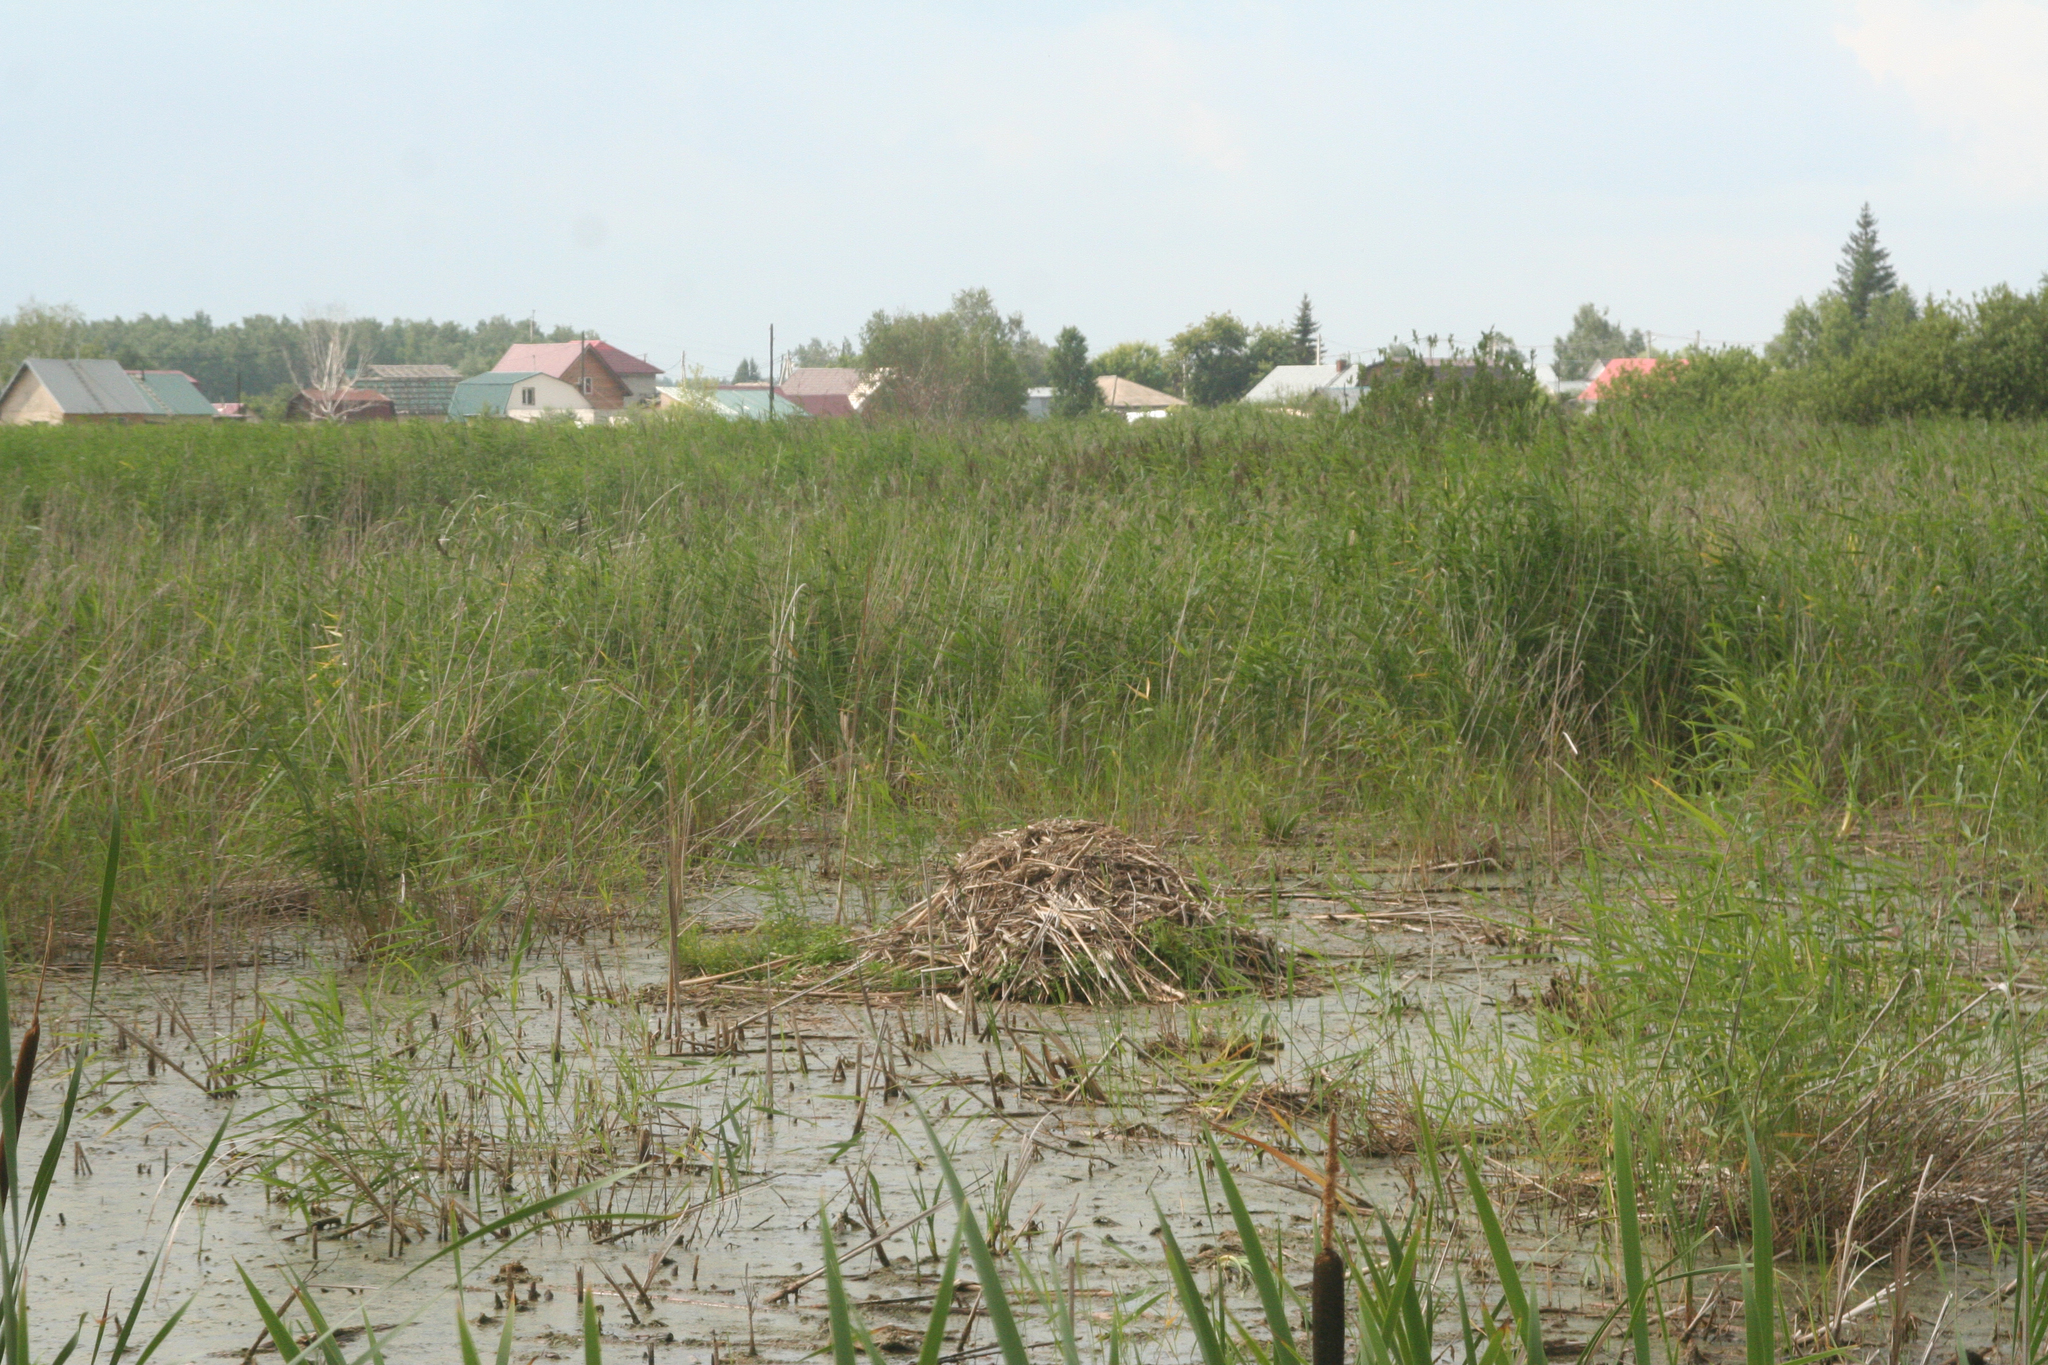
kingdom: Animalia
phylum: Chordata
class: Mammalia
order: Rodentia
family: Cricetidae
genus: Ondatra
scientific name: Ondatra zibethicus
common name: Muskrat
